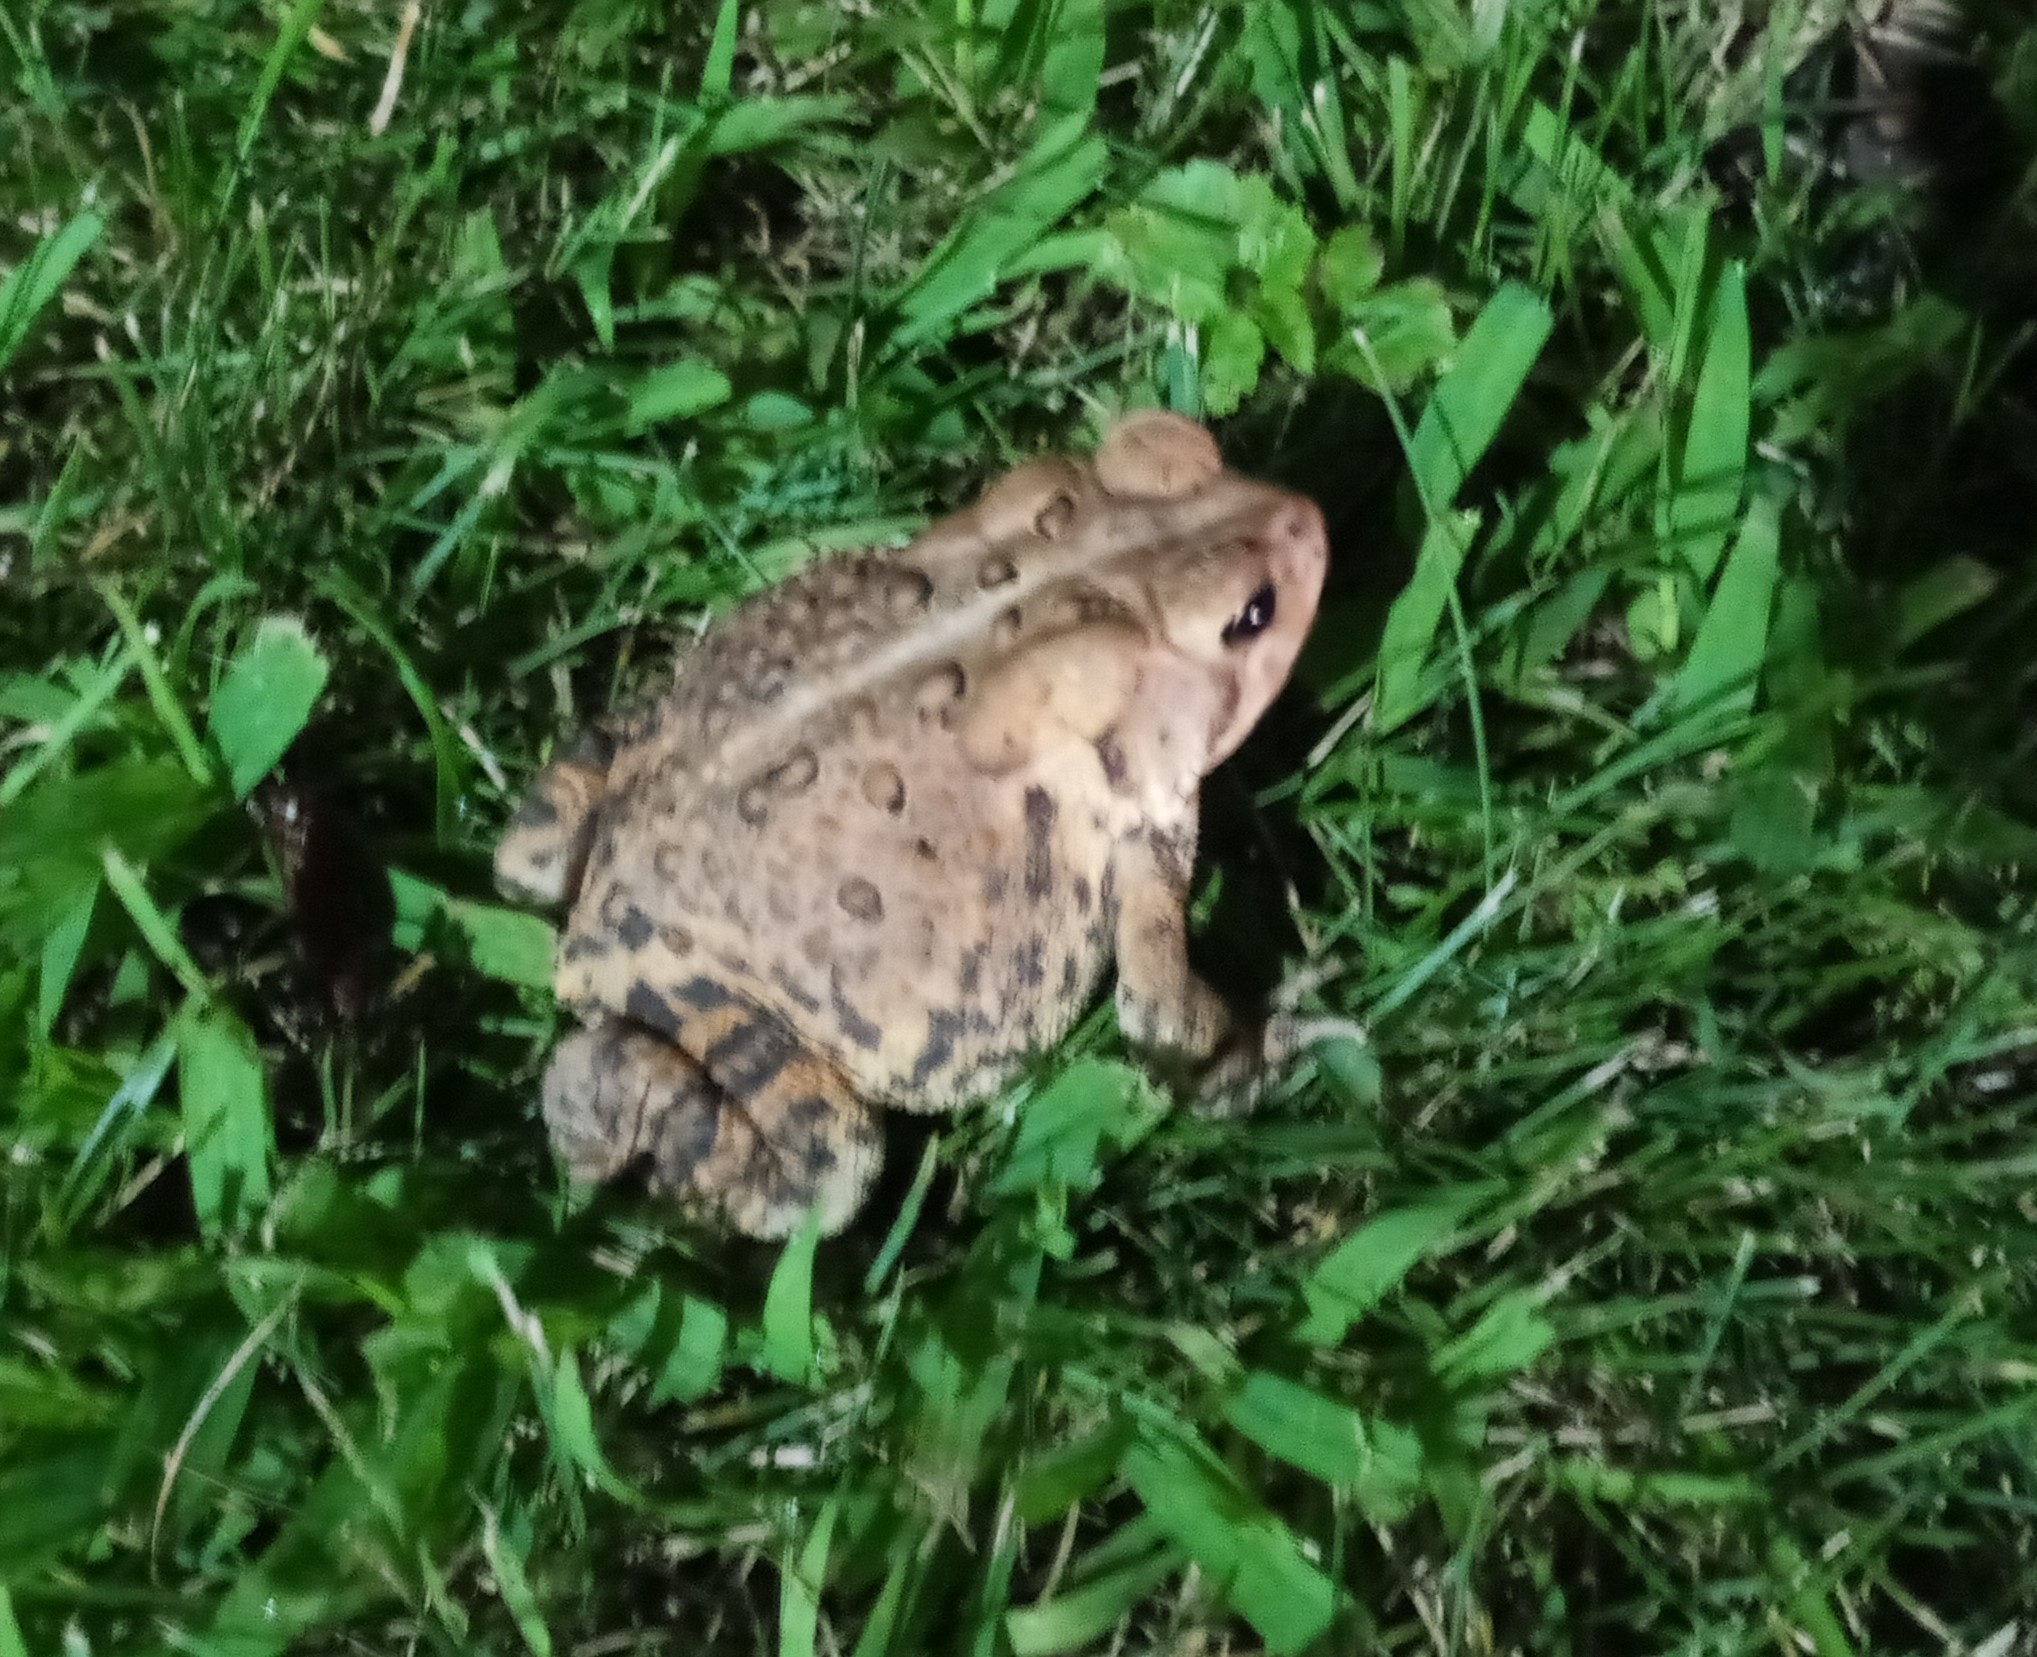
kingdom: Animalia
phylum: Chordata
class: Amphibia
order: Anura
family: Bufonidae
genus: Anaxyrus
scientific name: Anaxyrus americanus
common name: American toad
